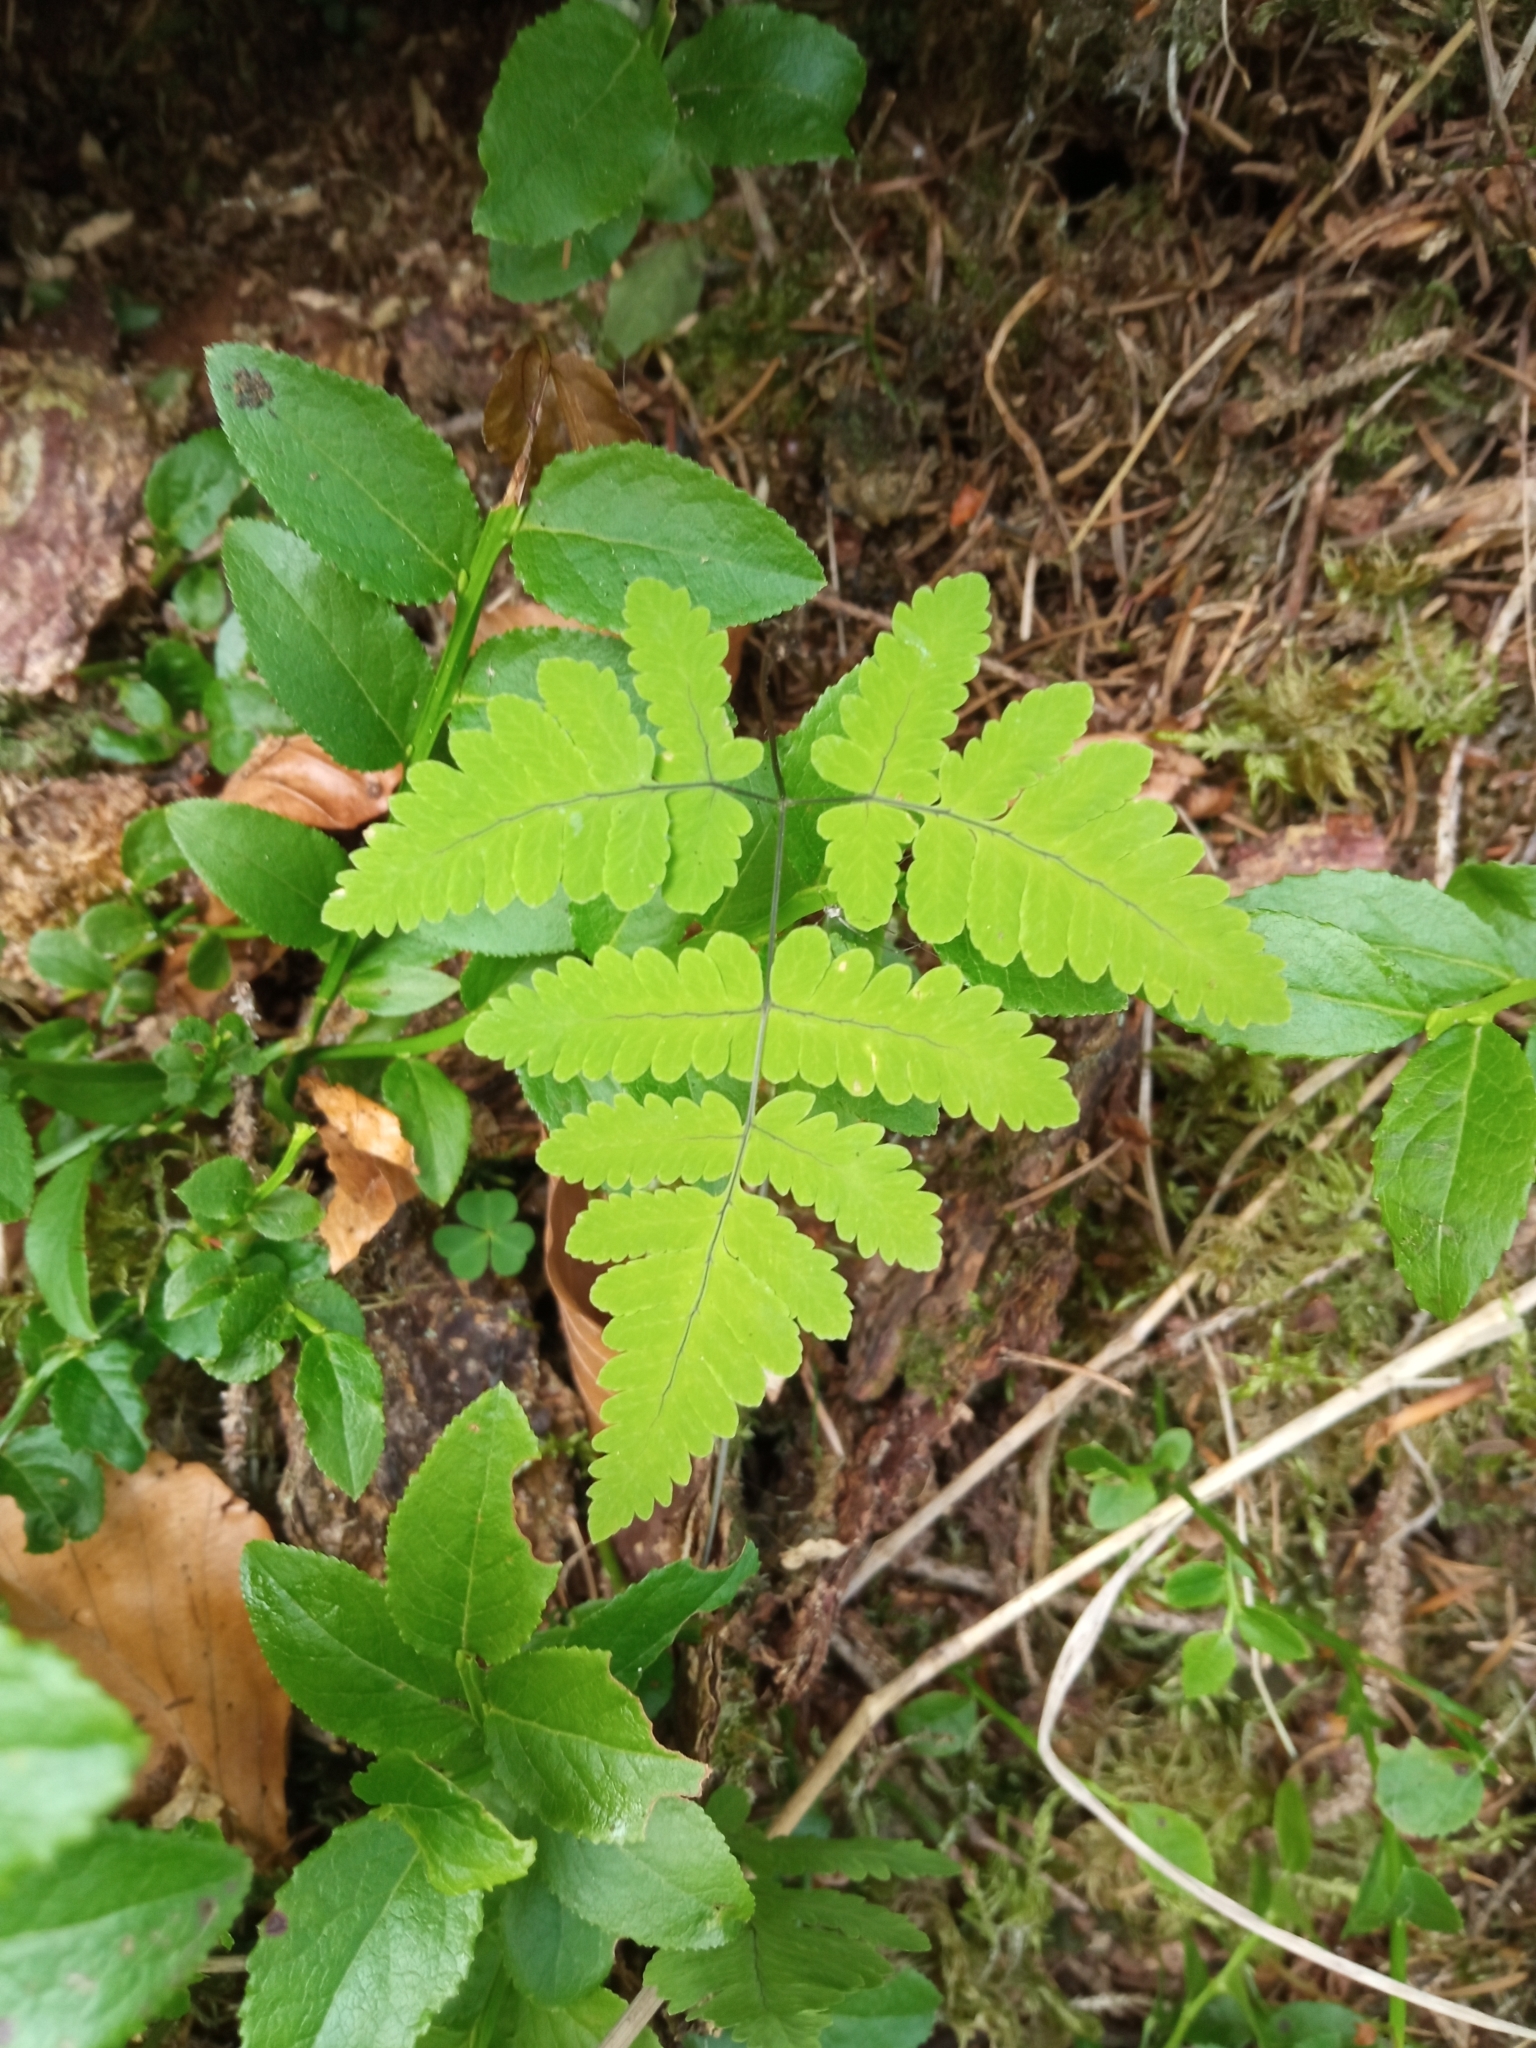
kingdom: Plantae
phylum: Tracheophyta
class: Polypodiopsida
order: Polypodiales
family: Cystopteridaceae
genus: Gymnocarpium
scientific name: Gymnocarpium dryopteris
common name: Oak fern
